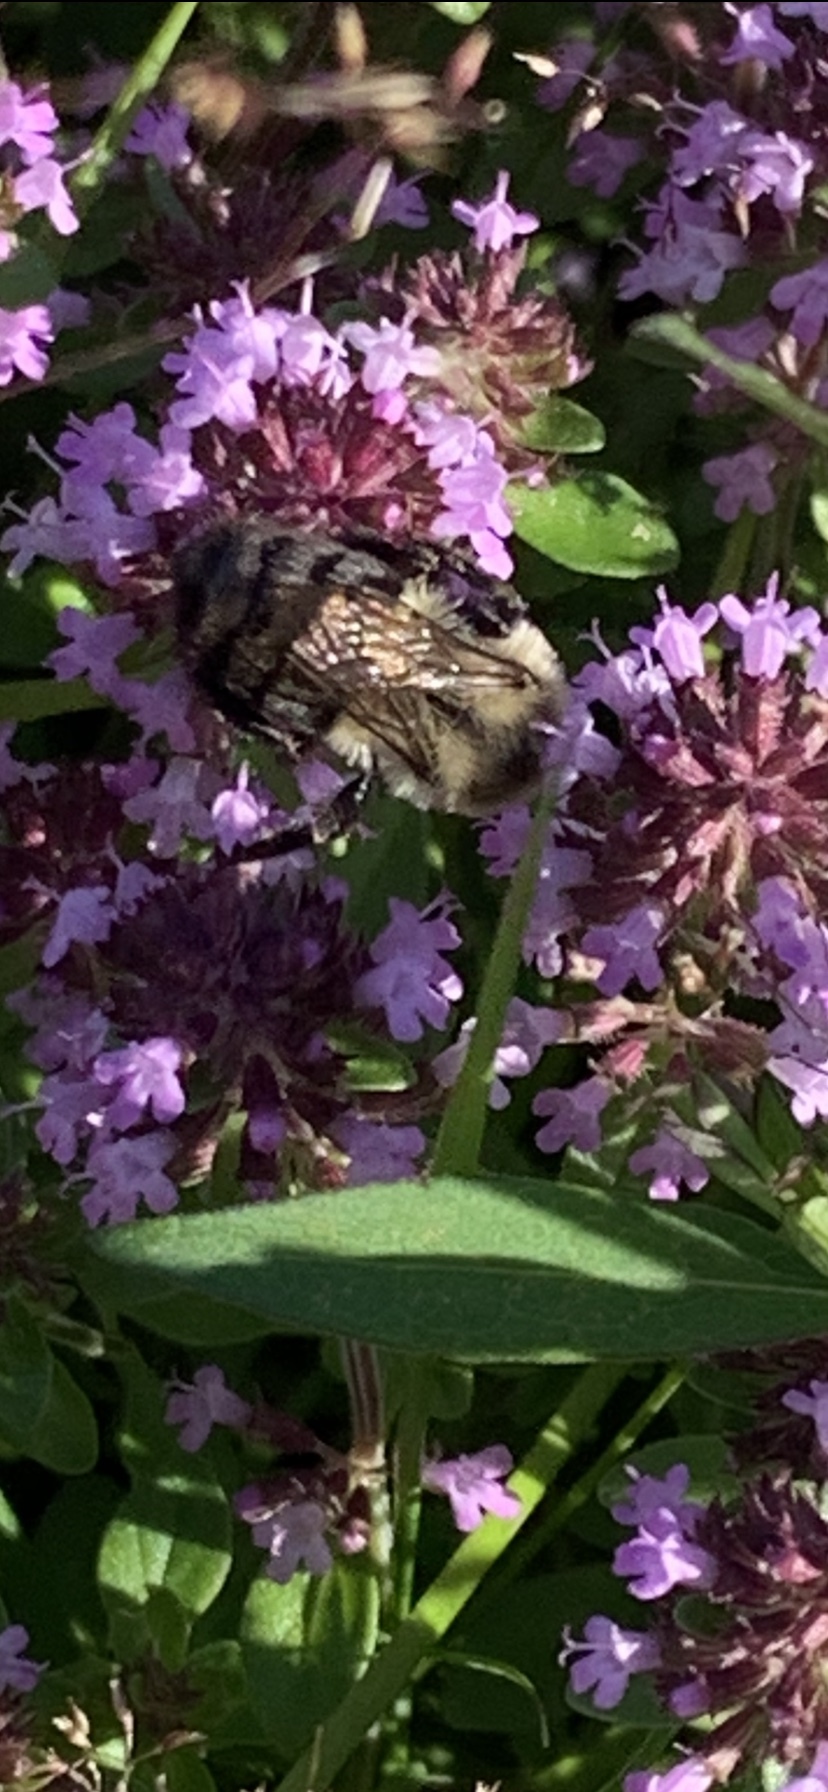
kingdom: Animalia
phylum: Arthropoda
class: Insecta
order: Hymenoptera
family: Apidae
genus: Bombus
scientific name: Bombus impatiens
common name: Common eastern bumble bee
